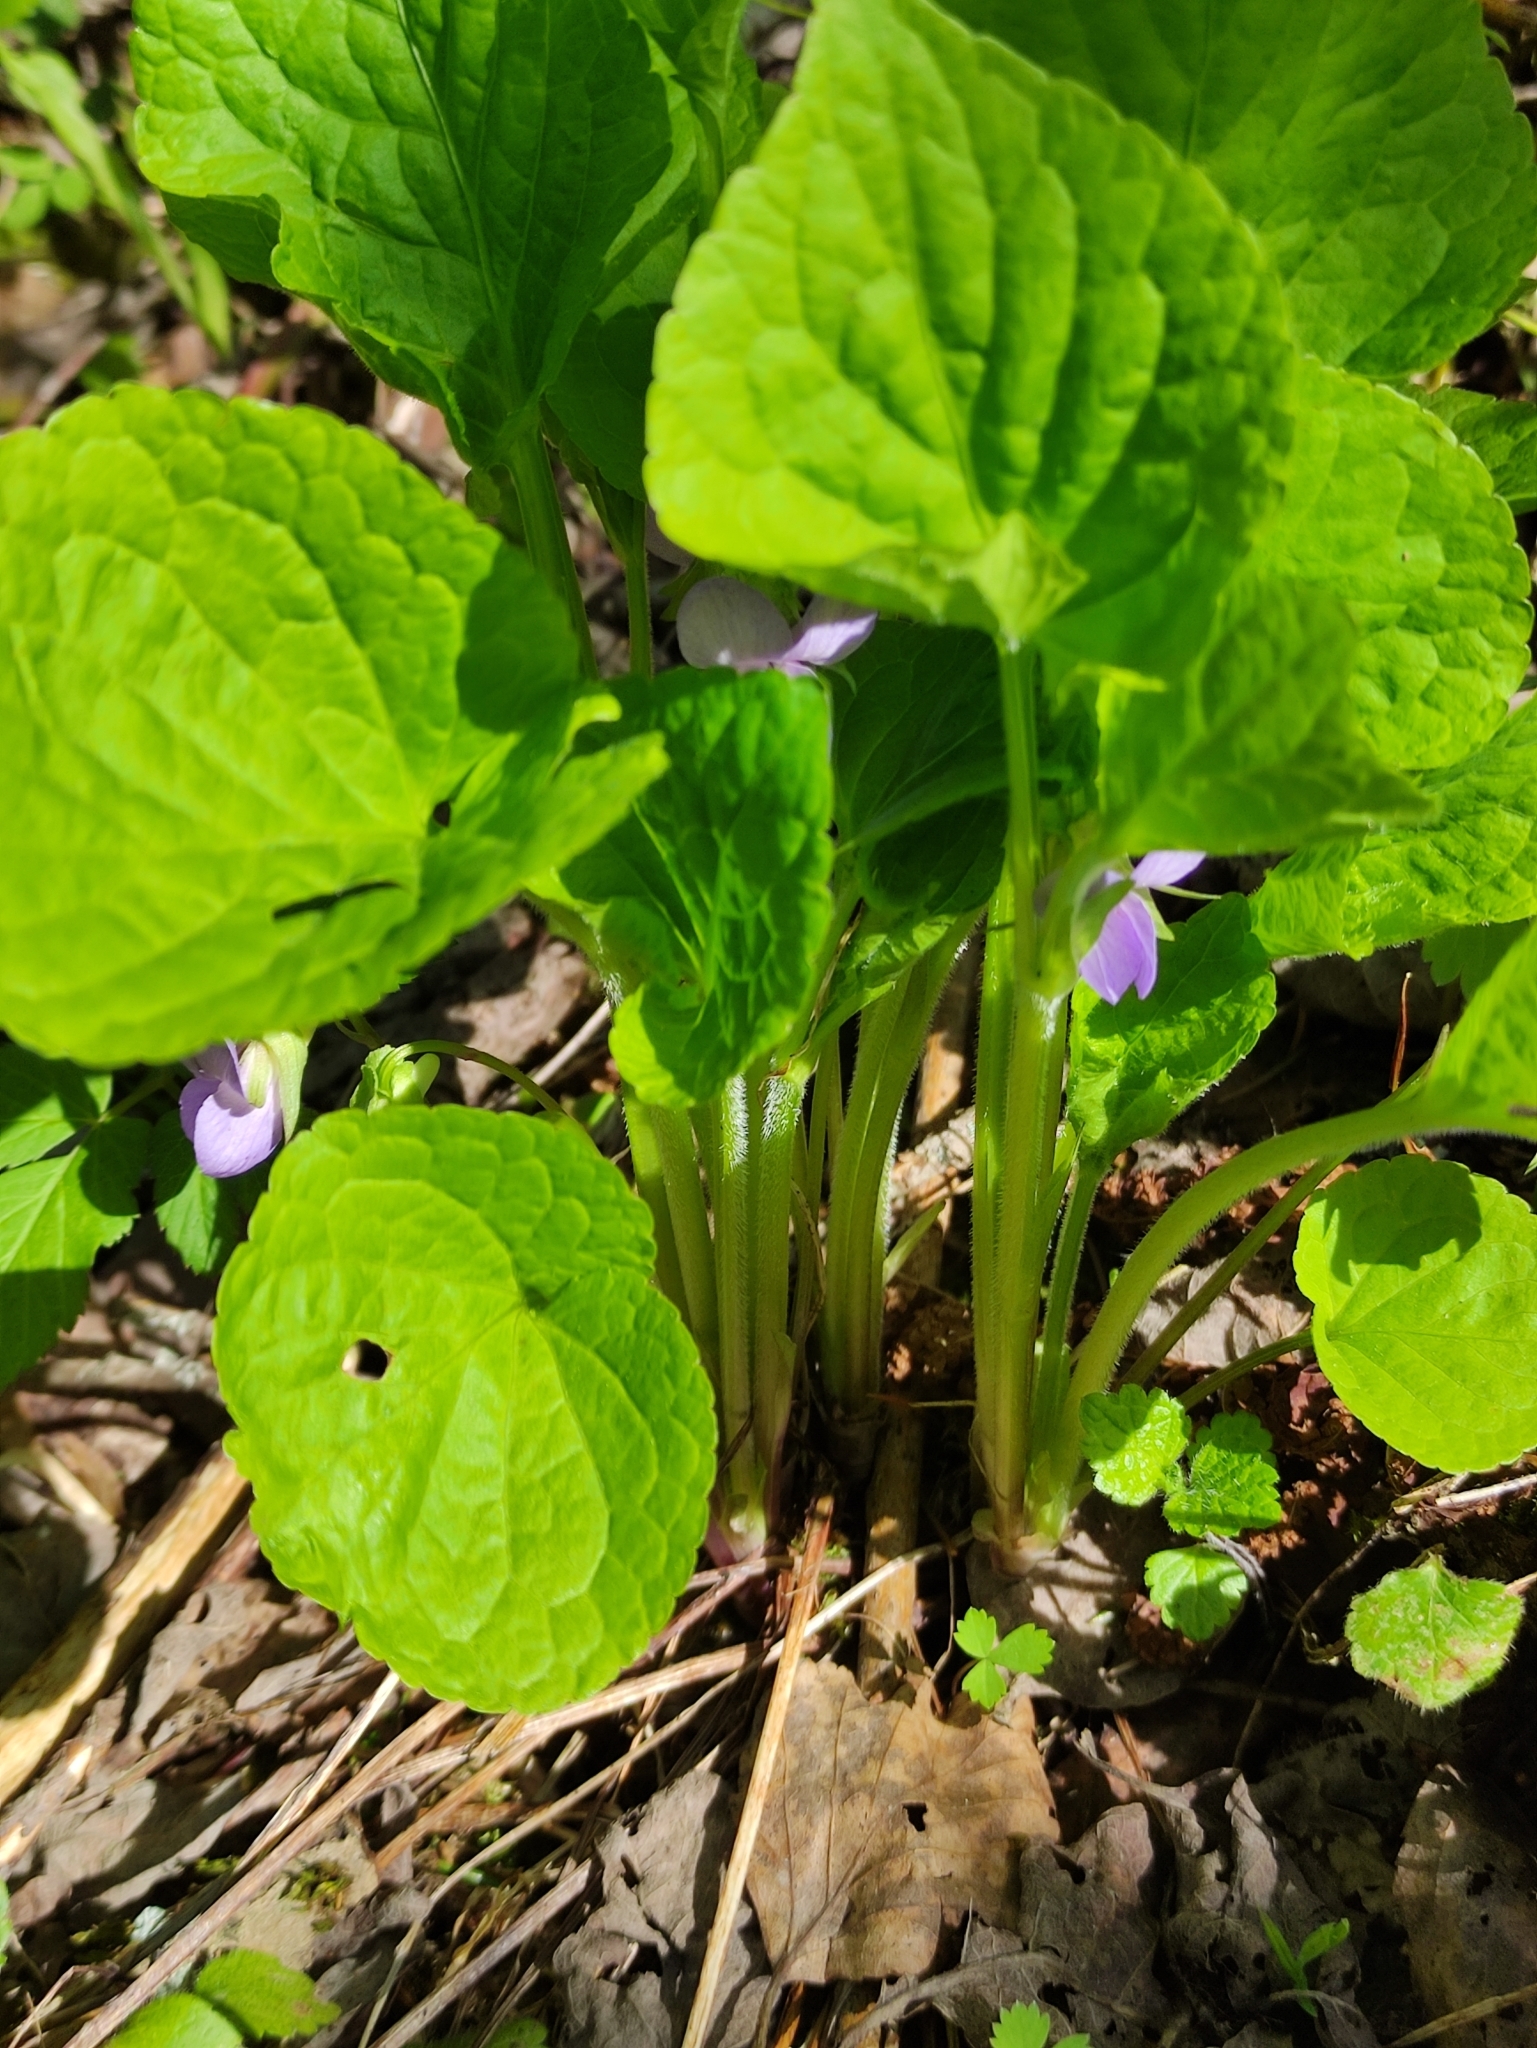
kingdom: Plantae
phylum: Tracheophyta
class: Magnoliopsida
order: Malpighiales
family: Violaceae
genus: Viola
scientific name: Viola mirabilis
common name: Wonder violet
